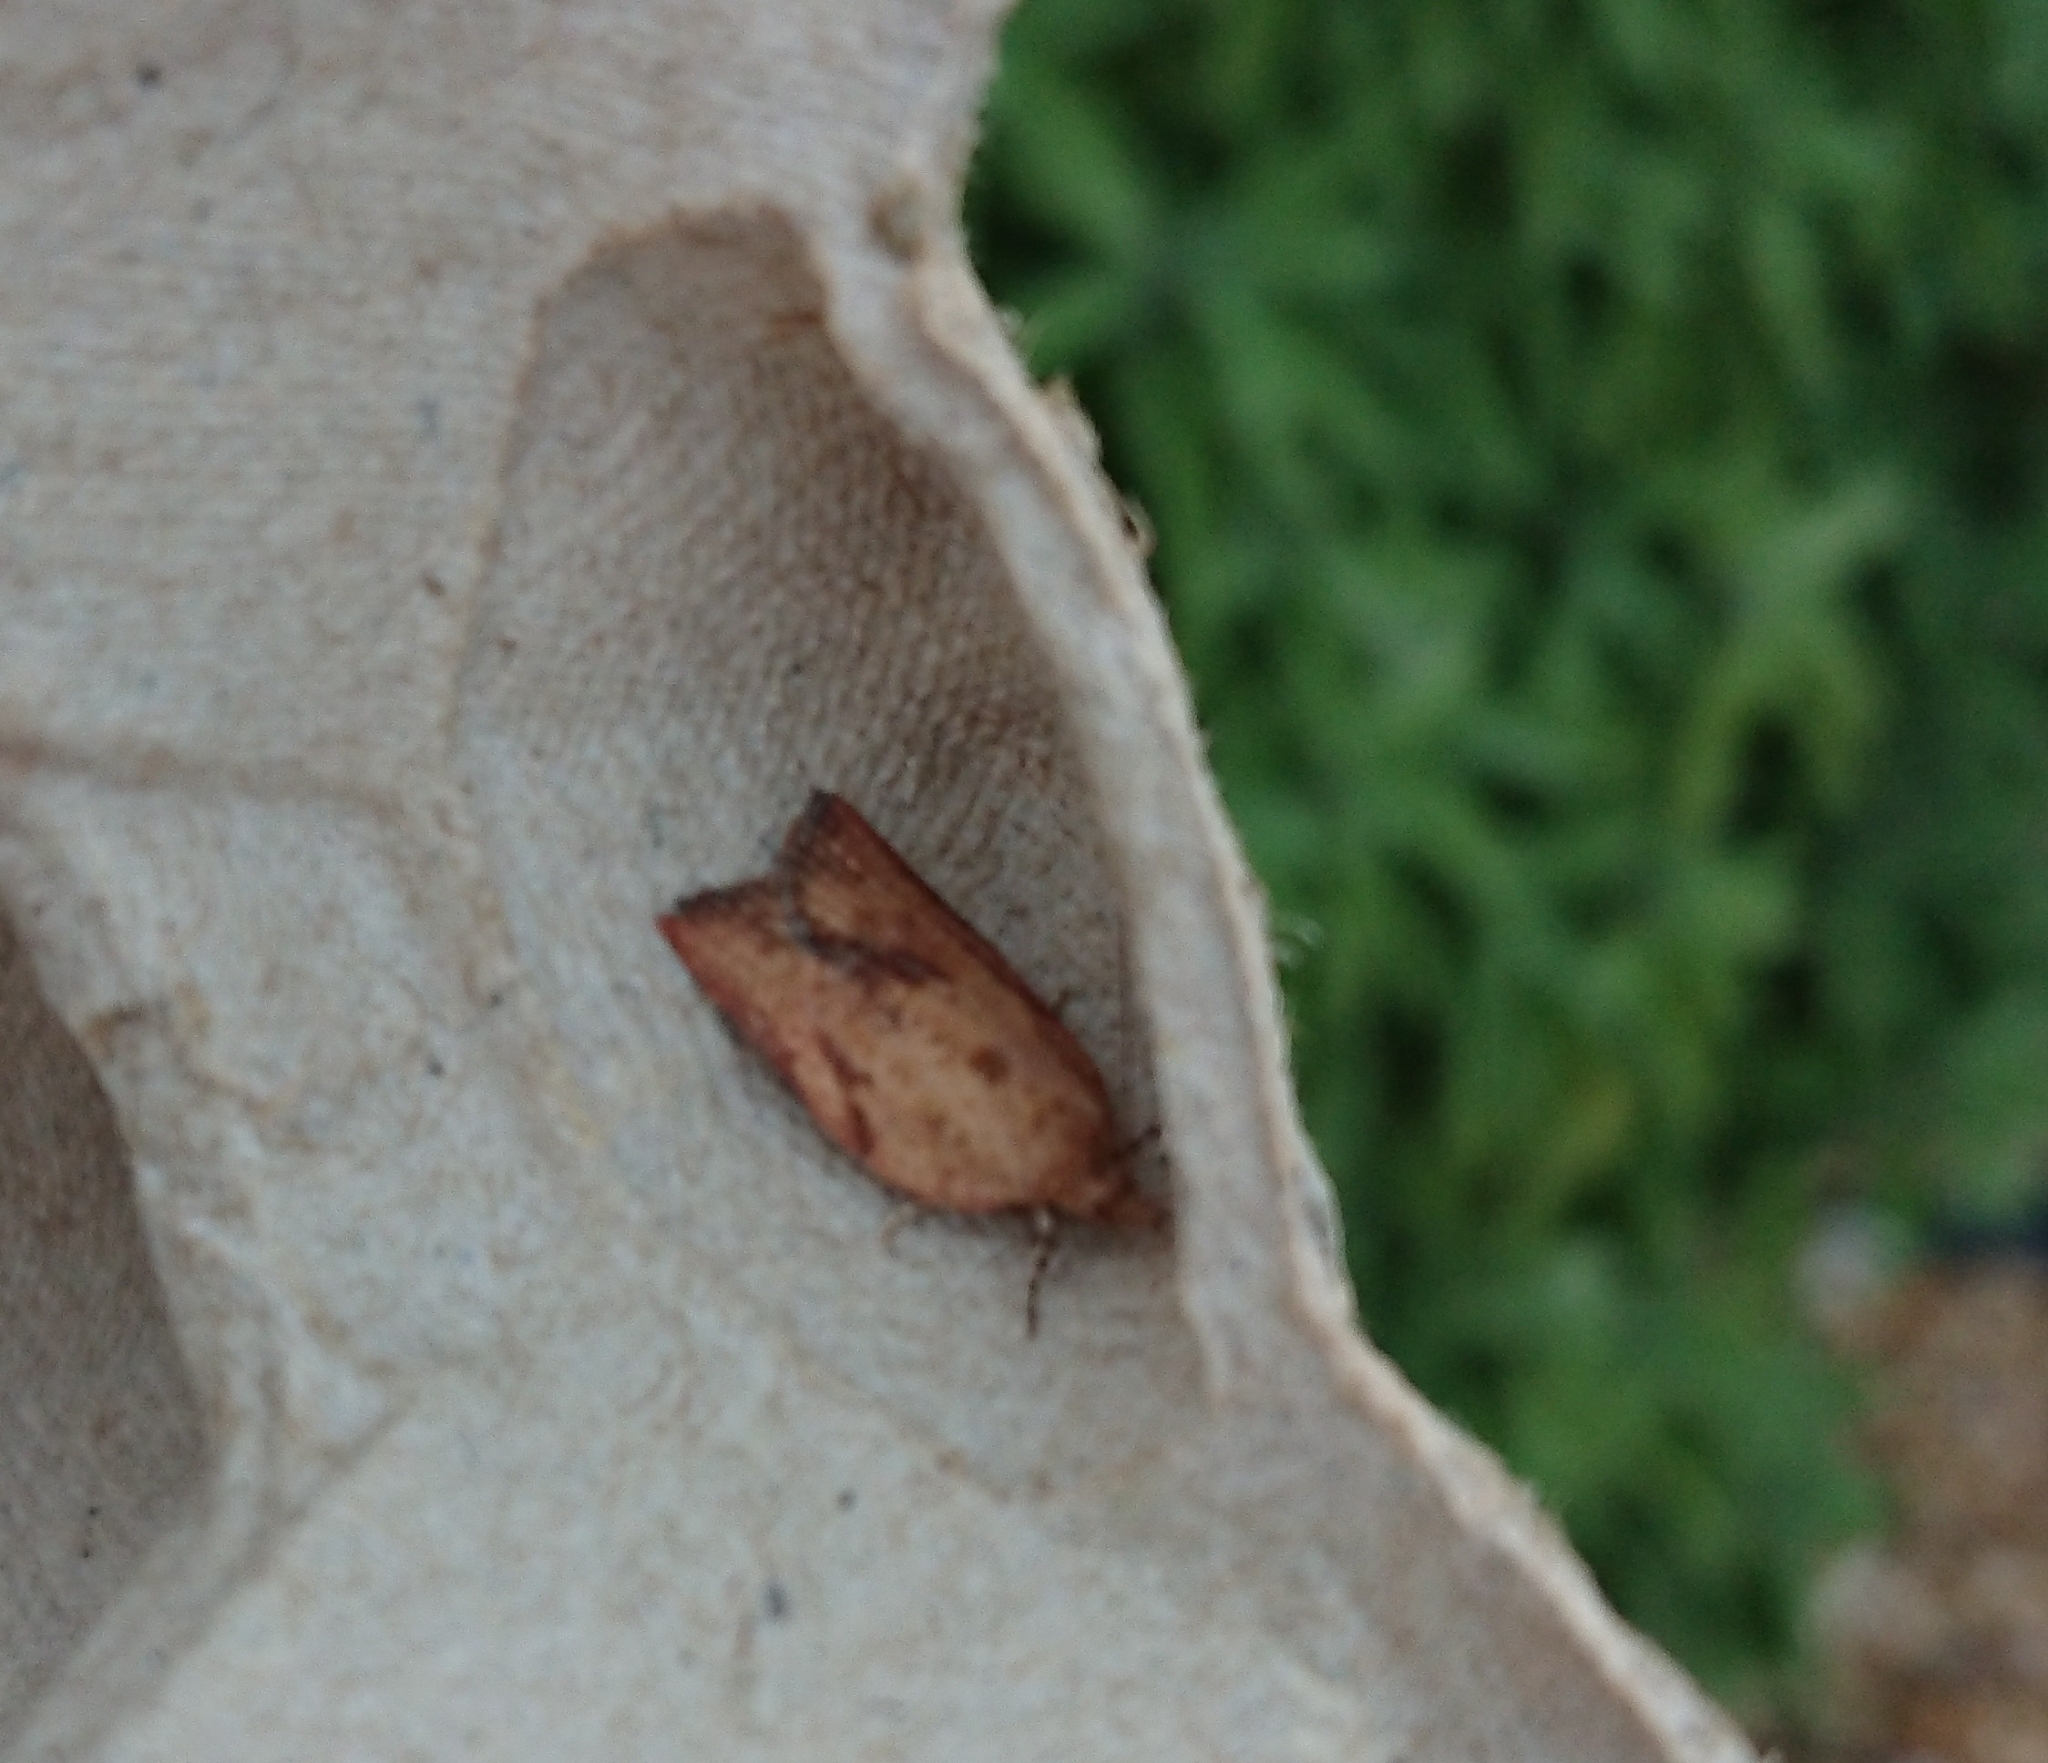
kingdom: Animalia
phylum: Arthropoda
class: Insecta
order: Lepidoptera
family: Tortricidae
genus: Epiphyas
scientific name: Epiphyas postvittana
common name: Light brown apple moth
